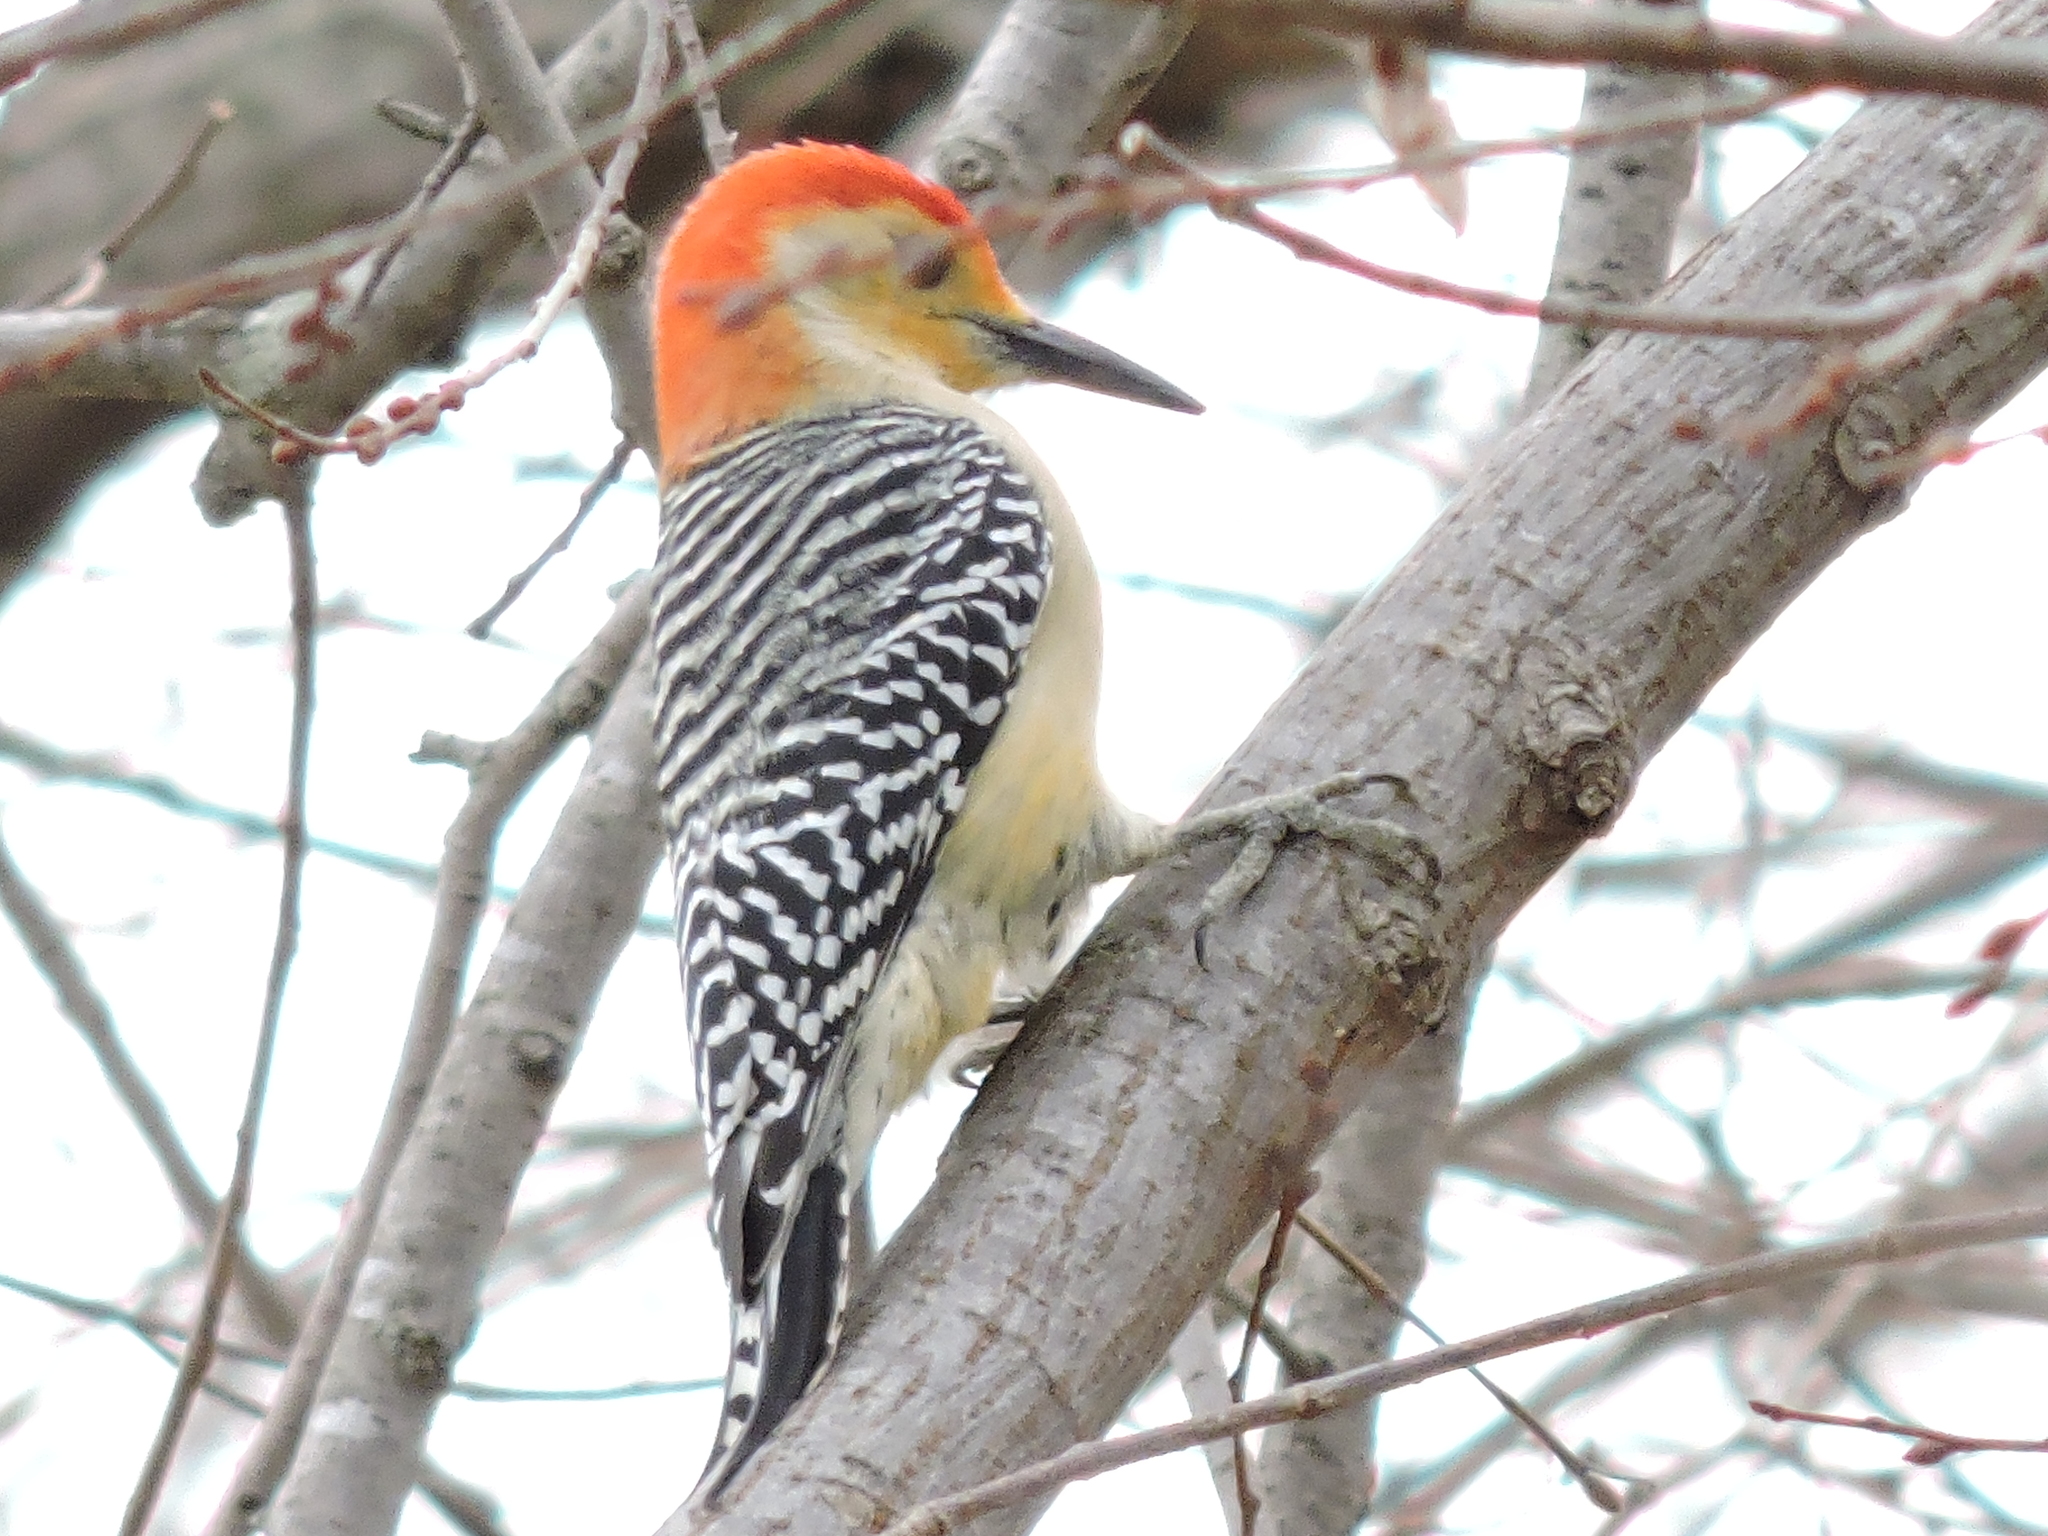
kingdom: Animalia
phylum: Chordata
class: Aves
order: Piciformes
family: Picidae
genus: Melanerpes
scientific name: Melanerpes carolinus
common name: Red-bellied woodpecker
